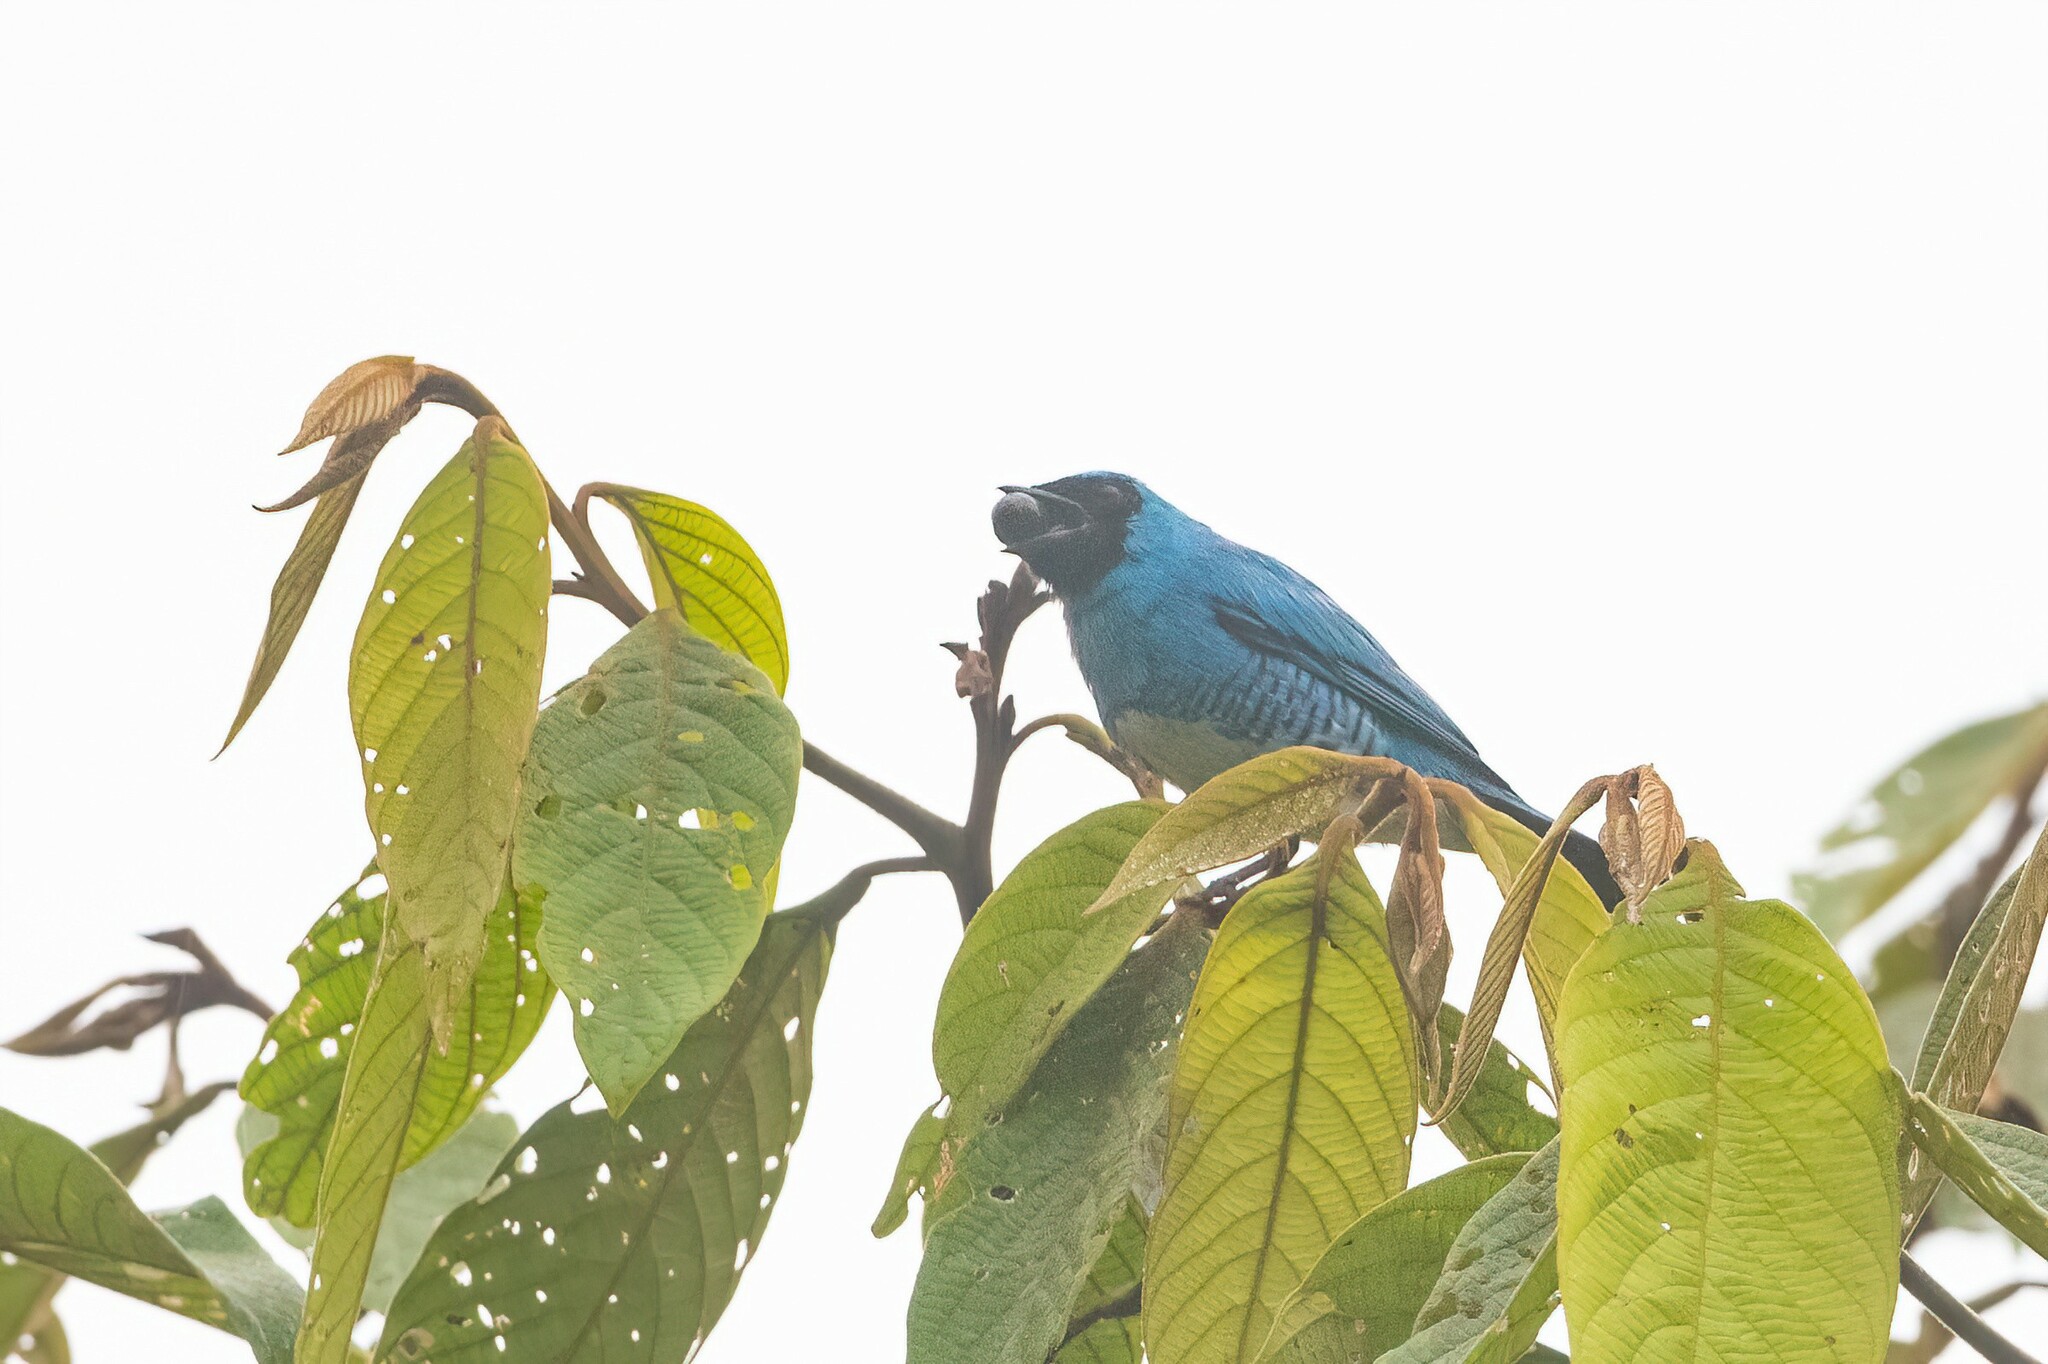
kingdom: Animalia
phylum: Chordata
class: Aves
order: Passeriformes
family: Thraupidae
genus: Tersina
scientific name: Tersina viridis
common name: Swallow tanager
